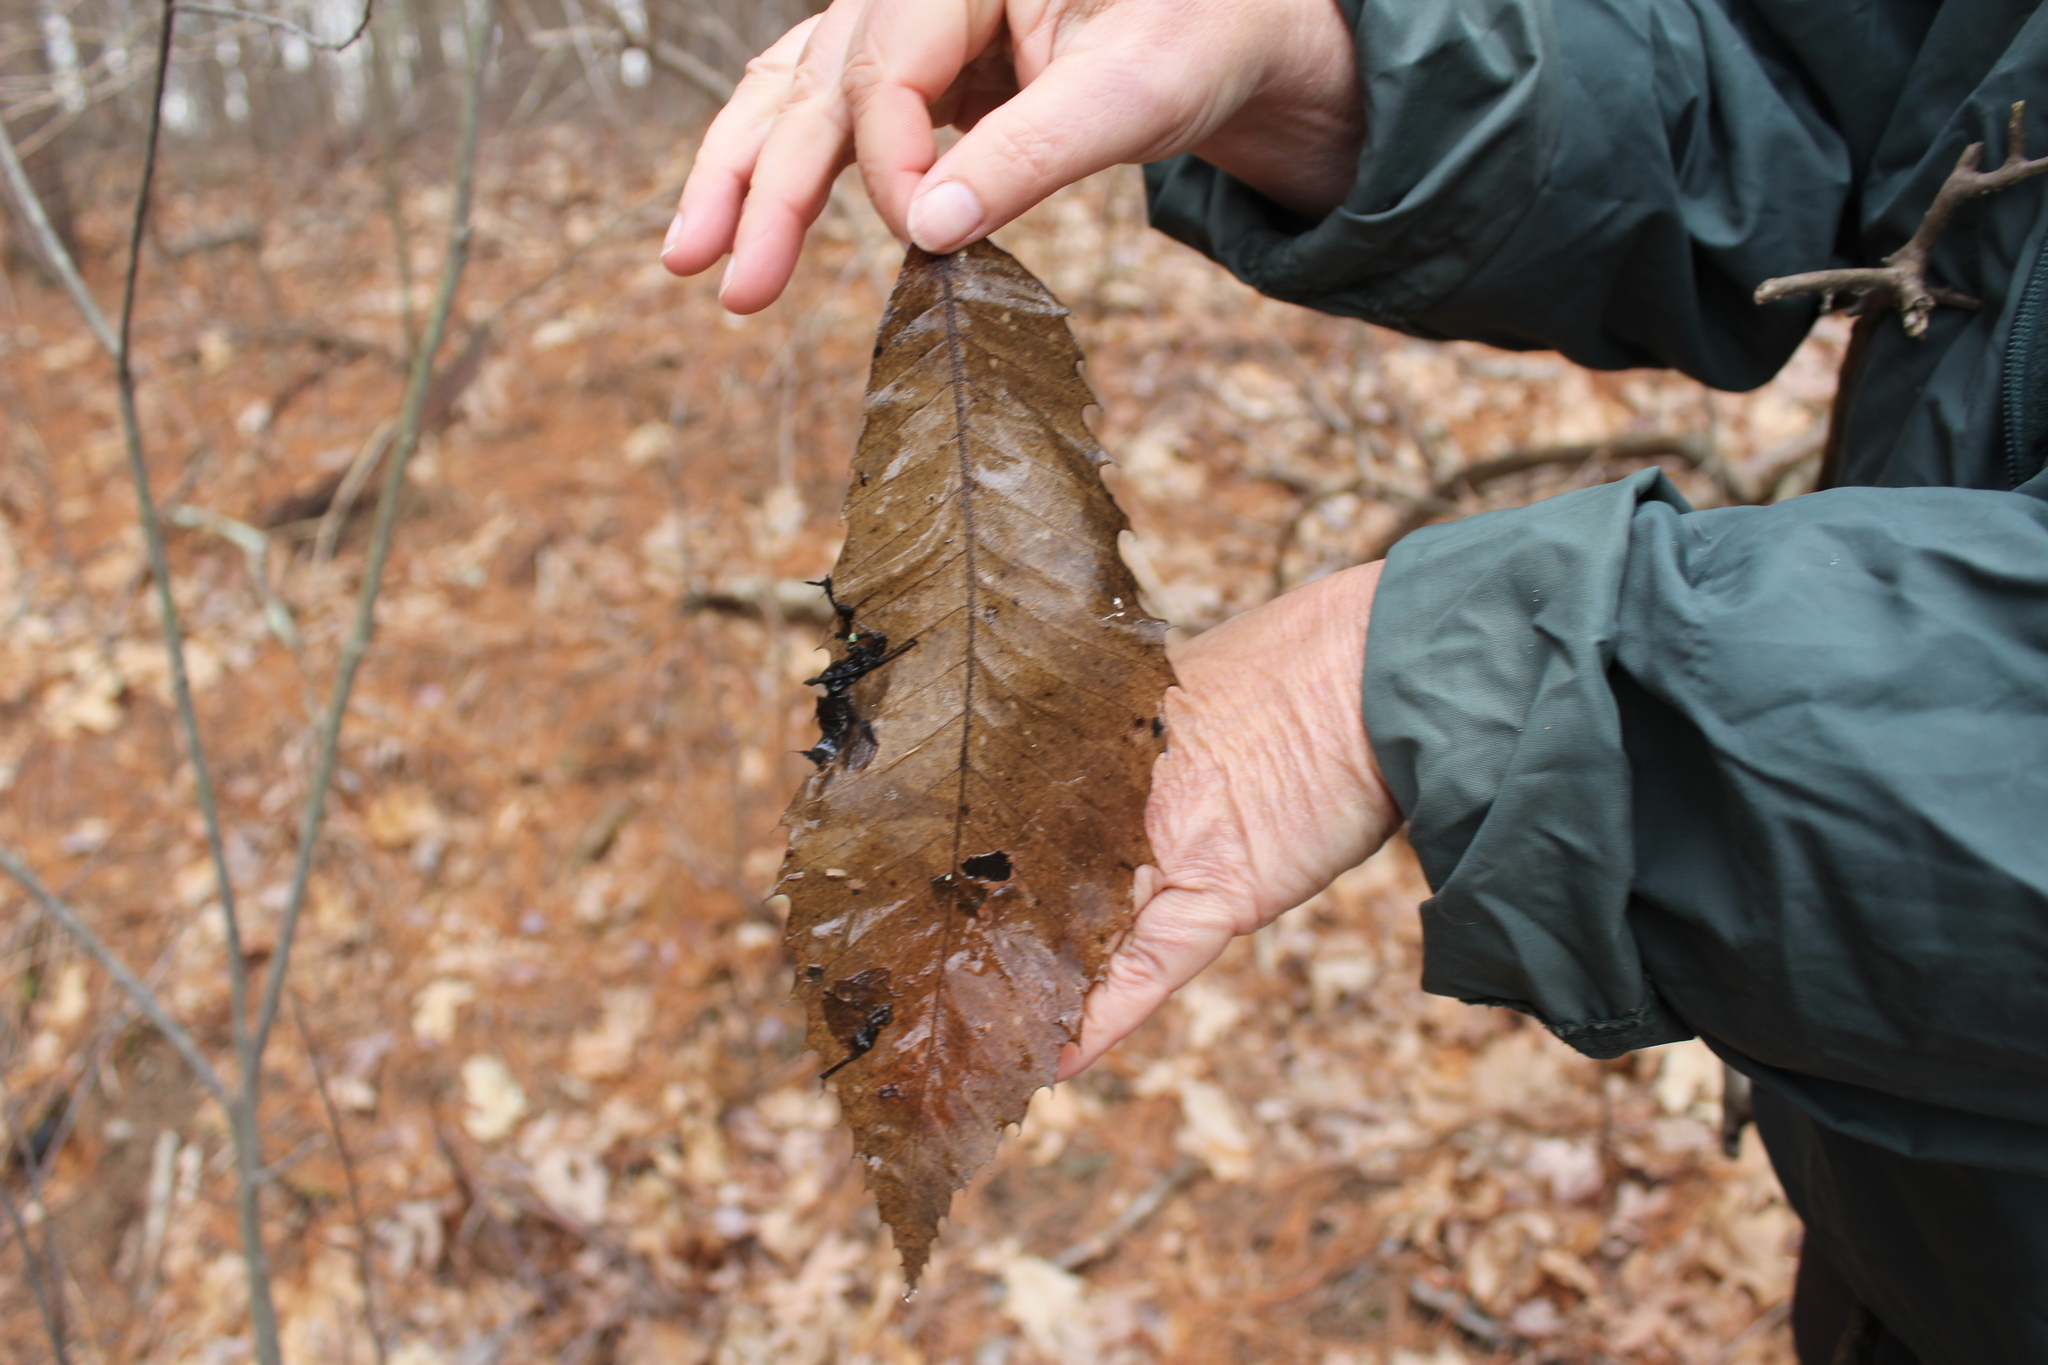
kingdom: Plantae
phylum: Tracheophyta
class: Magnoliopsida
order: Fagales
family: Fagaceae
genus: Castanea
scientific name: Castanea dentata
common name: American chestnut
